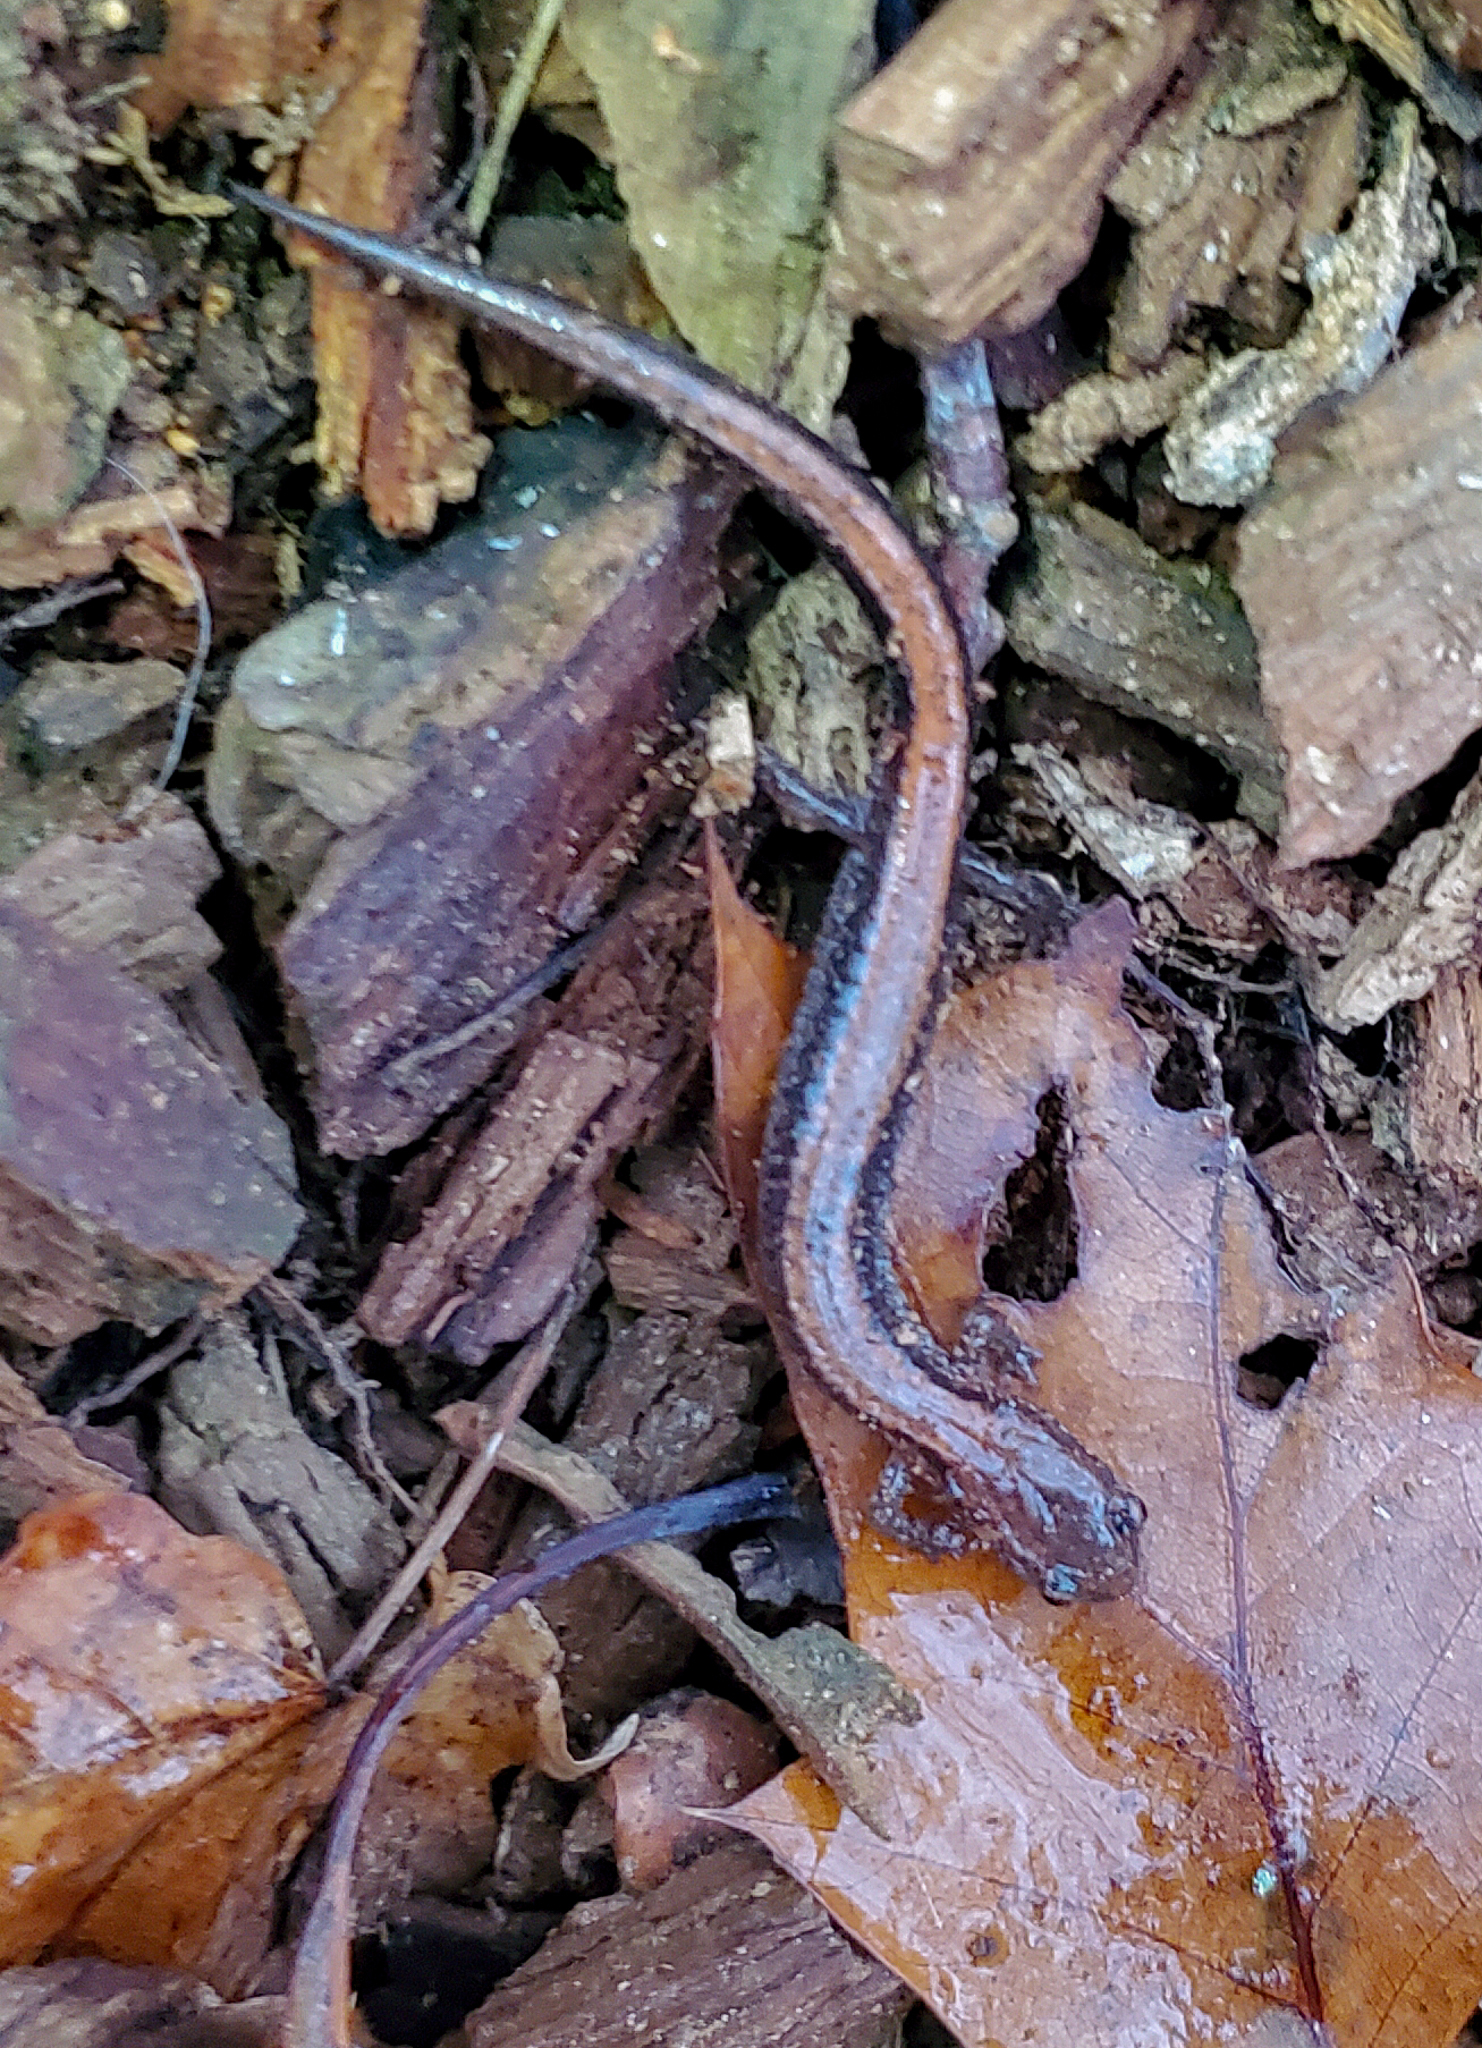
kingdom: Animalia
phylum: Chordata
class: Amphibia
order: Caudata
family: Plethodontidae
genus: Plethodon
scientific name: Plethodon cinereus
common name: Redback salamander
